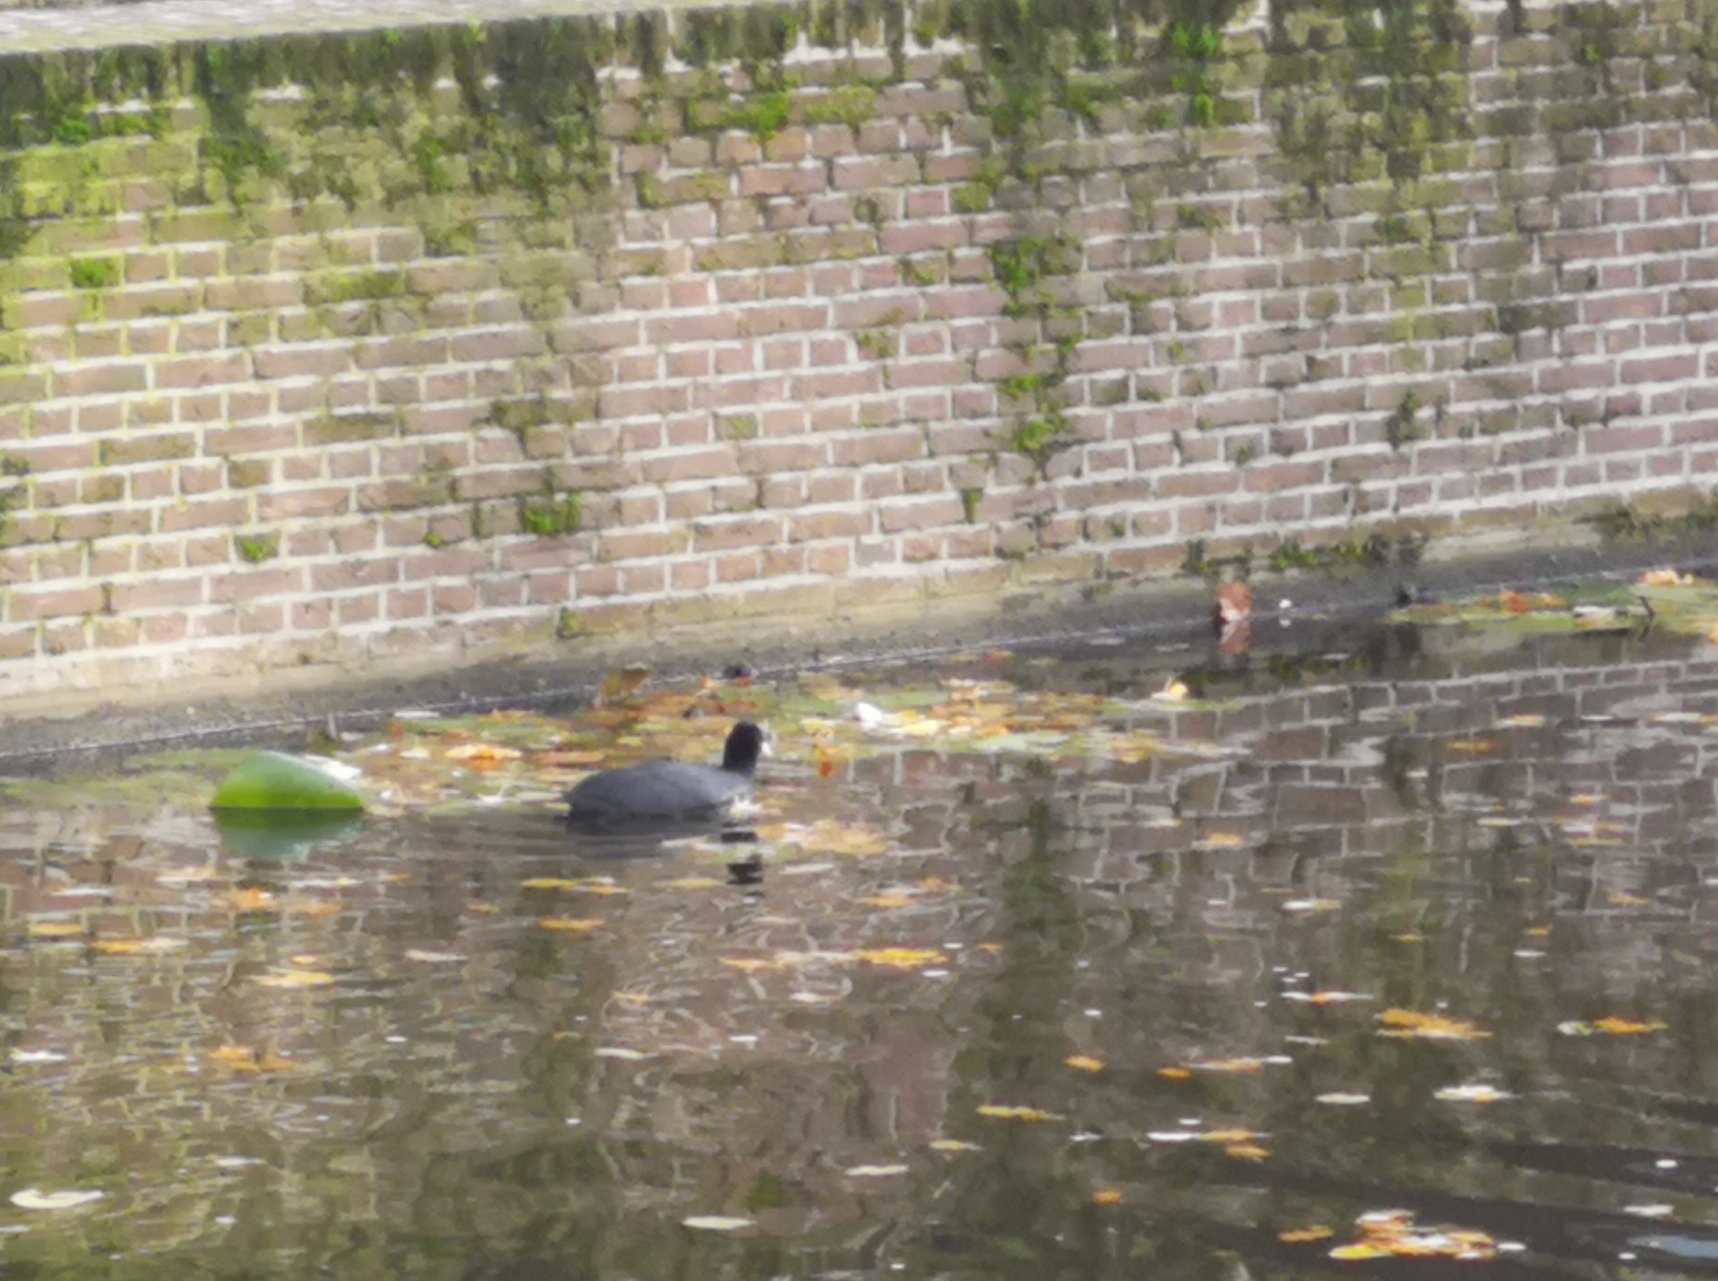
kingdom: Animalia
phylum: Chordata
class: Aves
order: Gruiformes
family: Rallidae
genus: Fulica
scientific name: Fulica atra
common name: Eurasian coot
